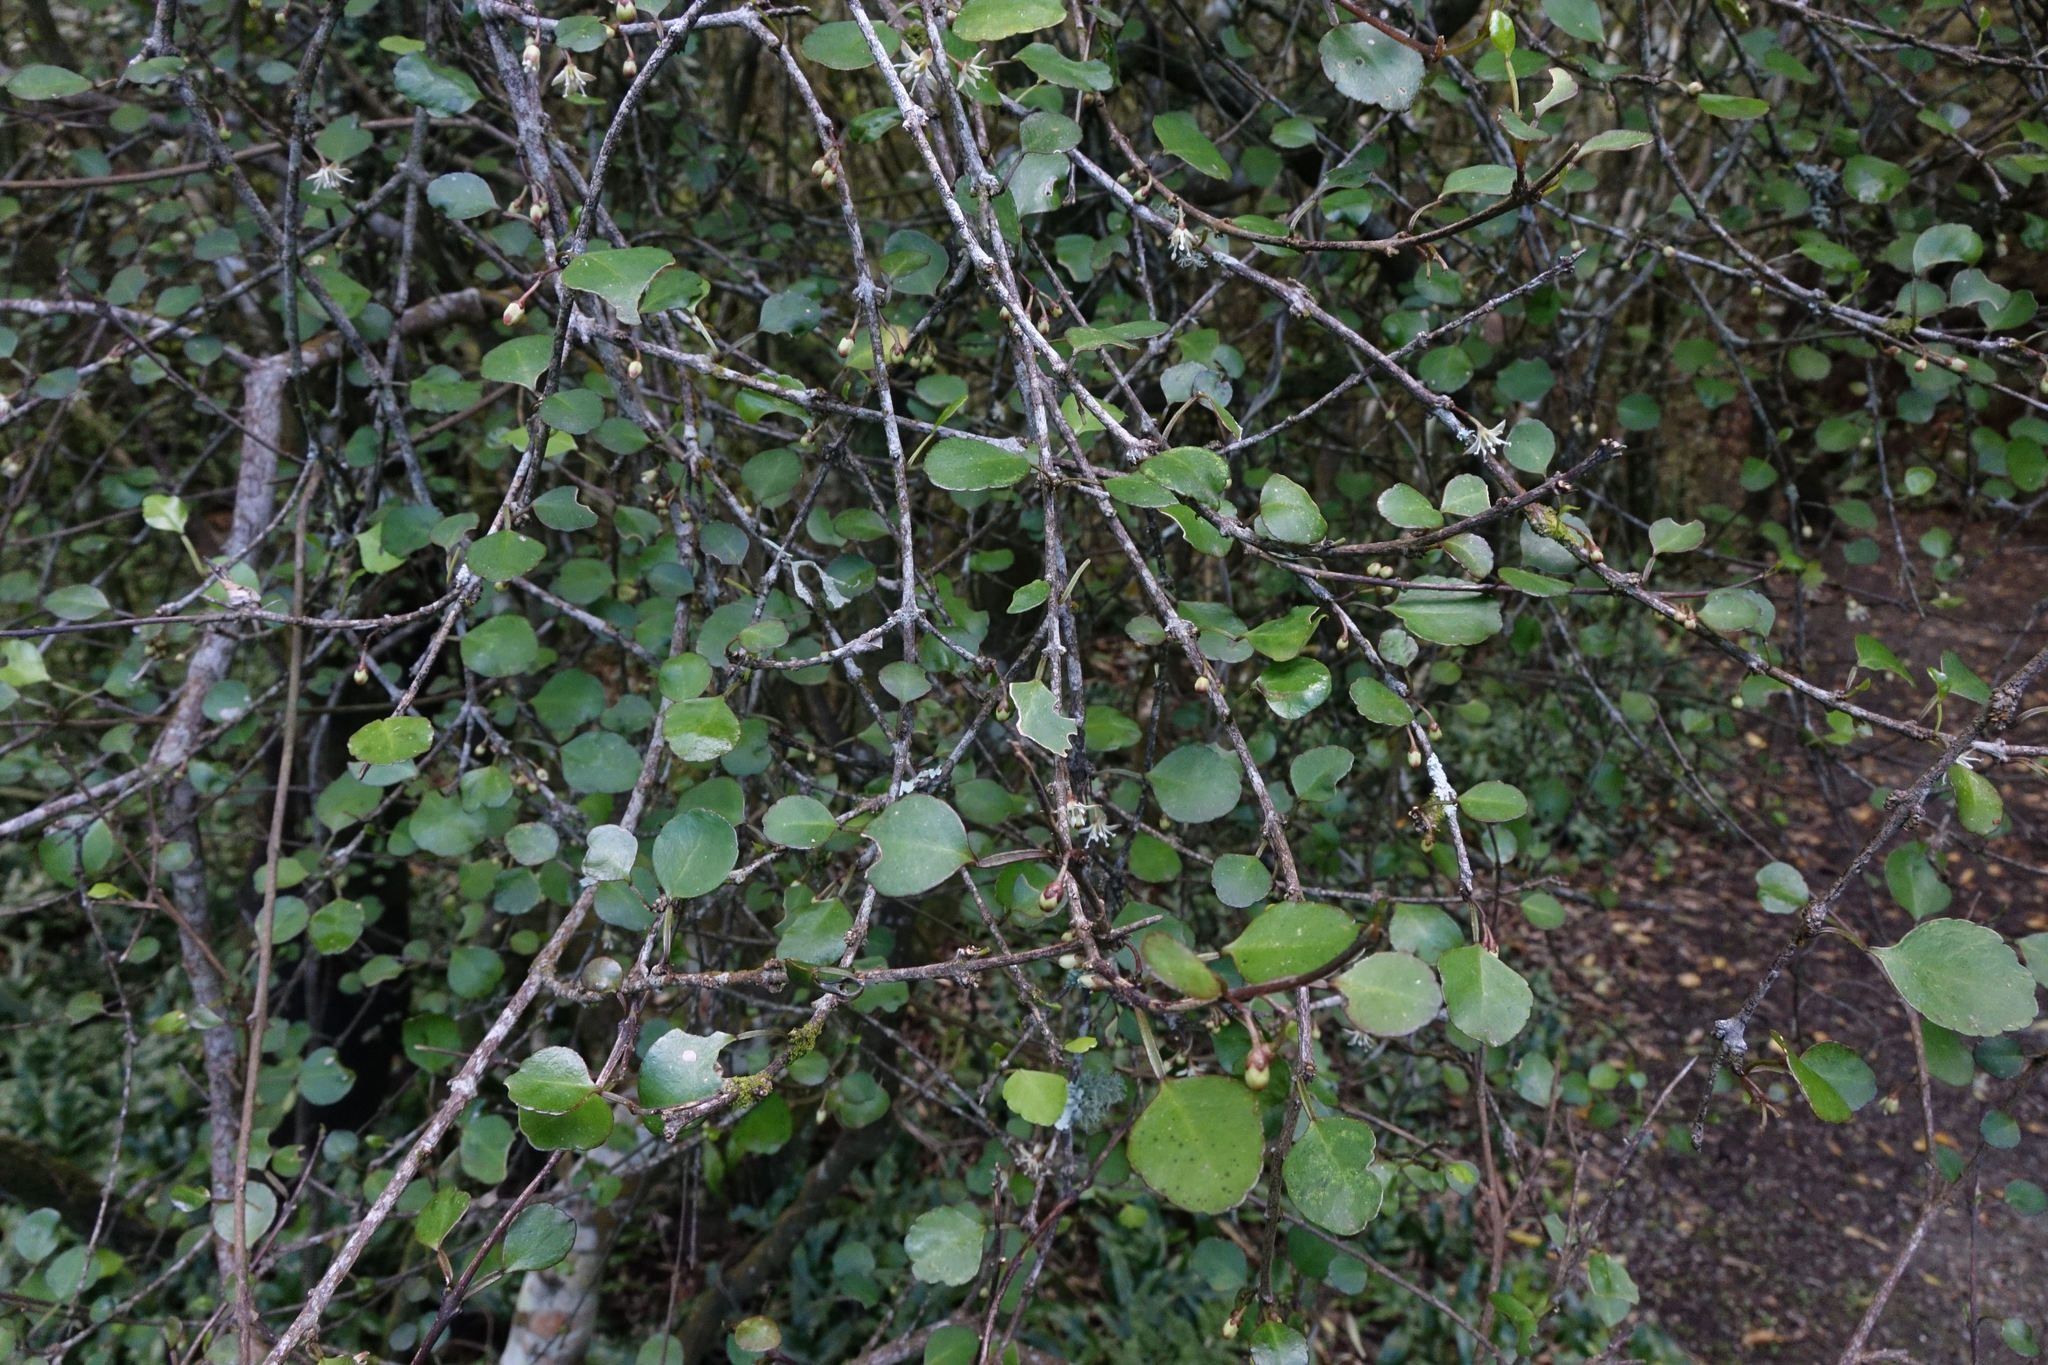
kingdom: Plantae
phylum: Tracheophyta
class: Magnoliopsida
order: Sapindales
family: Rutaceae
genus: Melicope
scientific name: Melicope simplex
